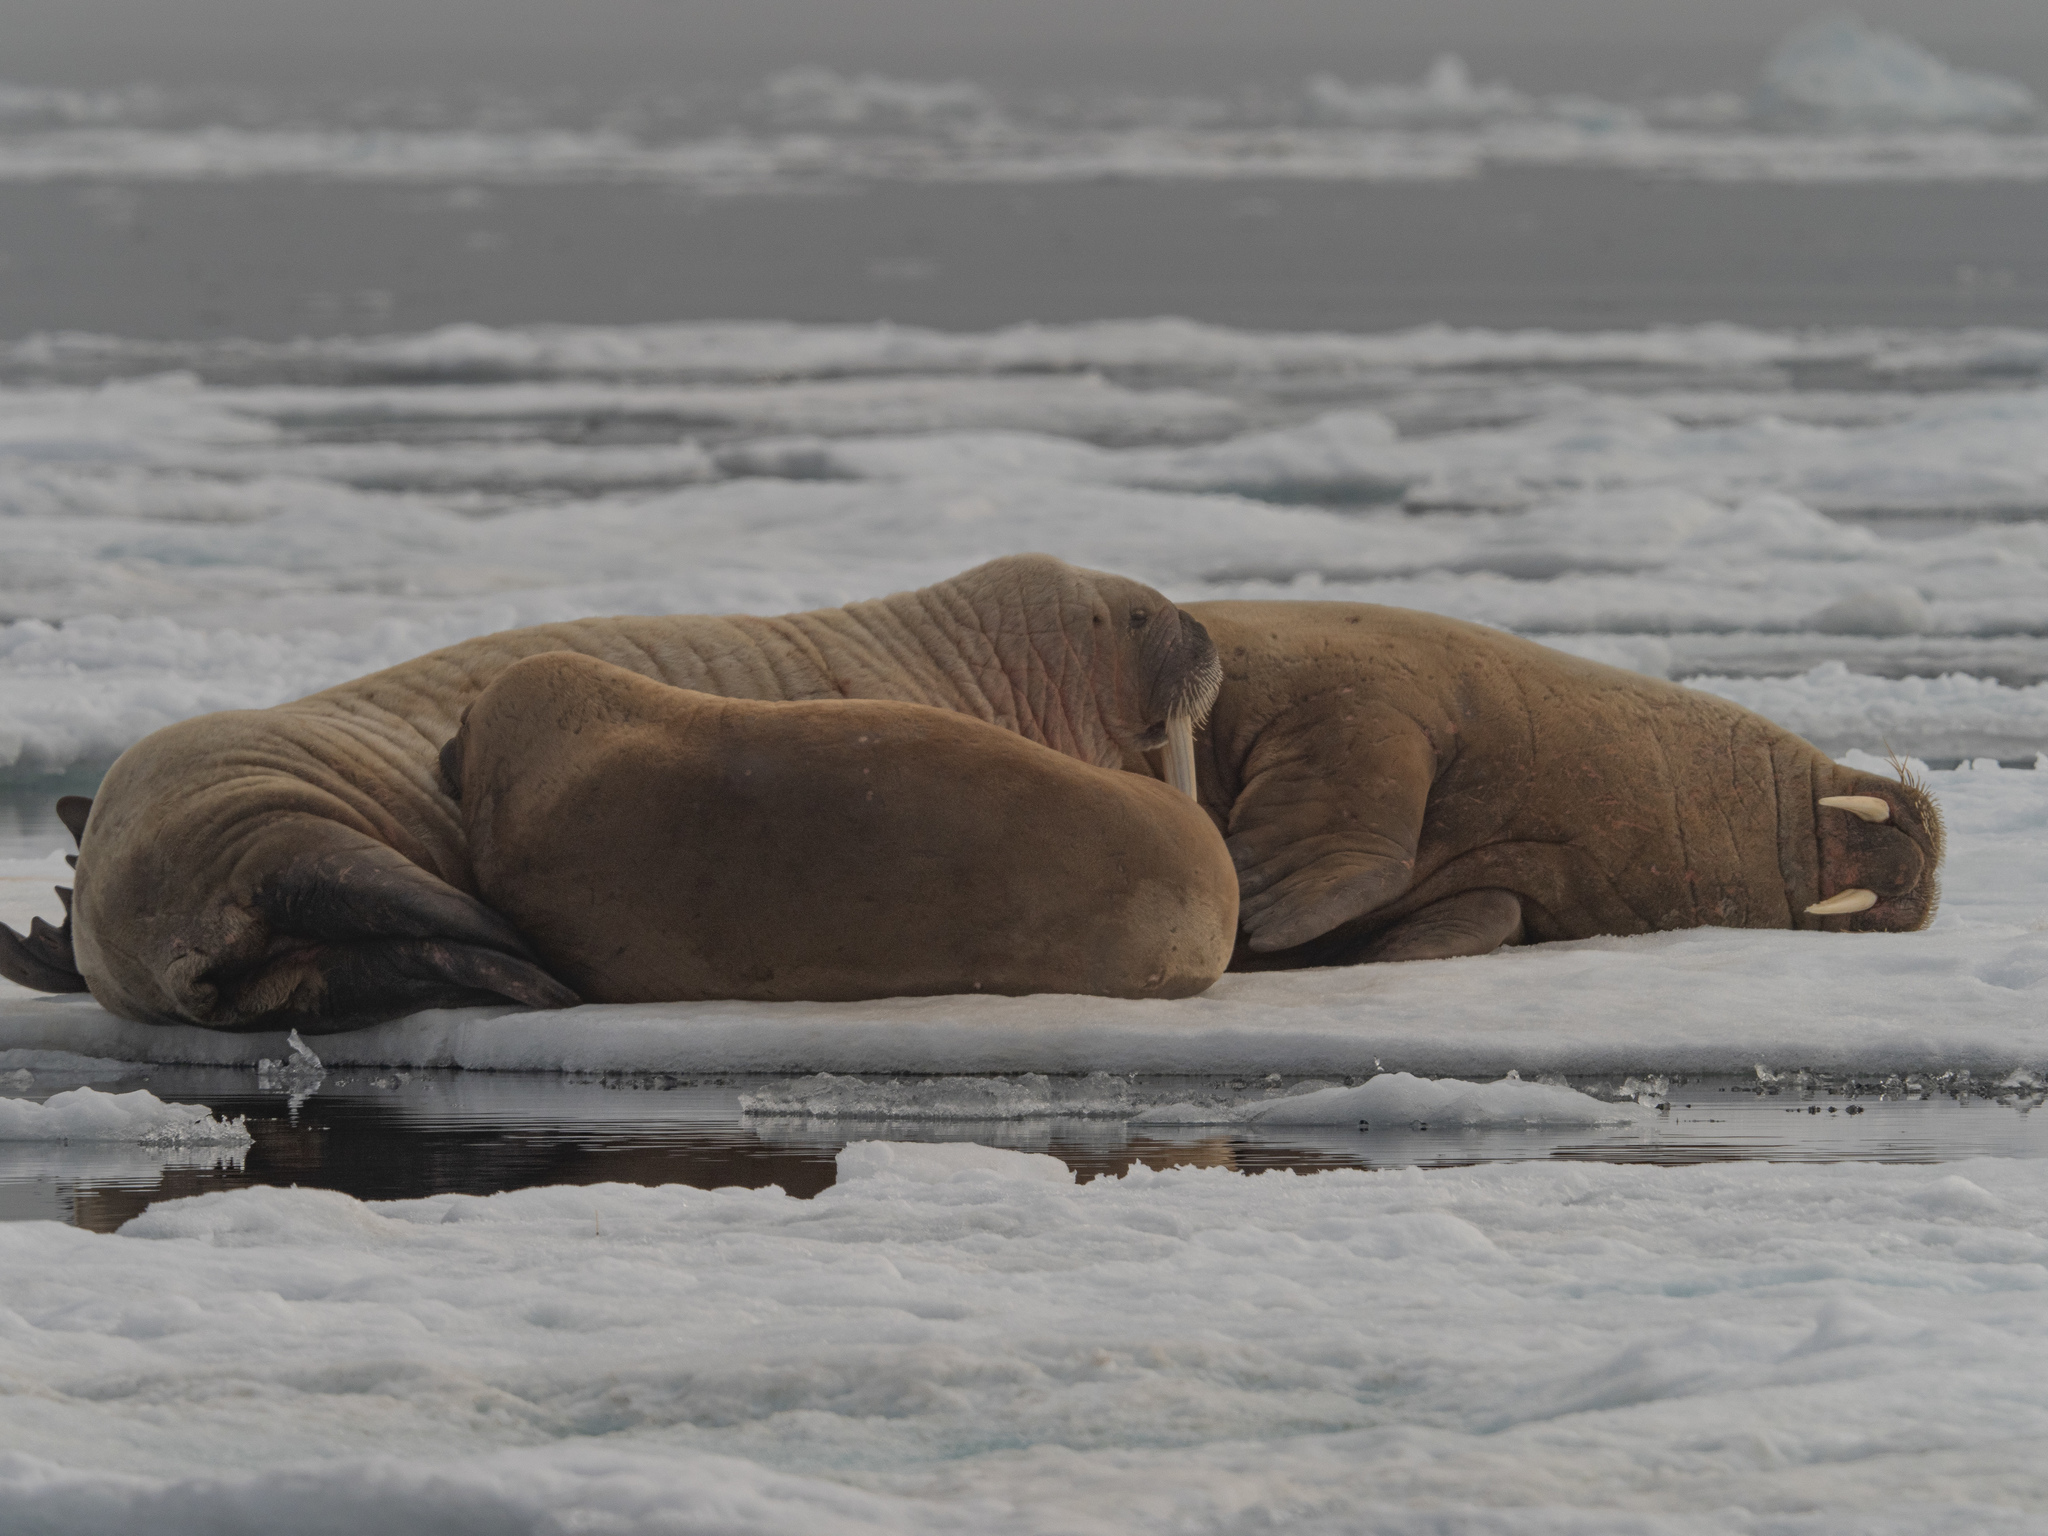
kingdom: Animalia
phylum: Chordata
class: Mammalia
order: Carnivora
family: Odobenidae
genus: Odobenus
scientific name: Odobenus rosmarus
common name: Walrus
